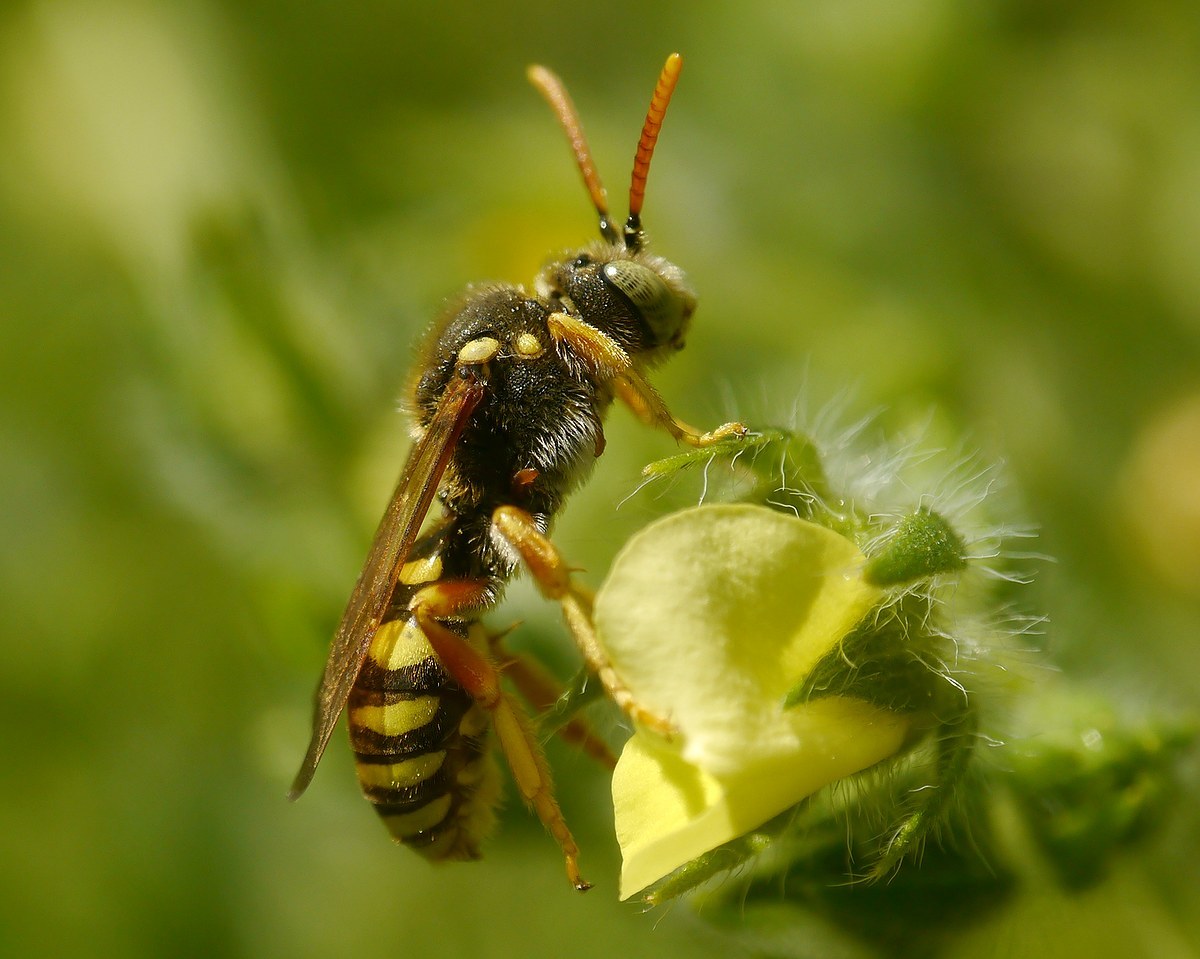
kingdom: Animalia
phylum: Arthropoda
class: Insecta
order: Hymenoptera
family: Apidae
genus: Nomada
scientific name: Nomada nobilis
